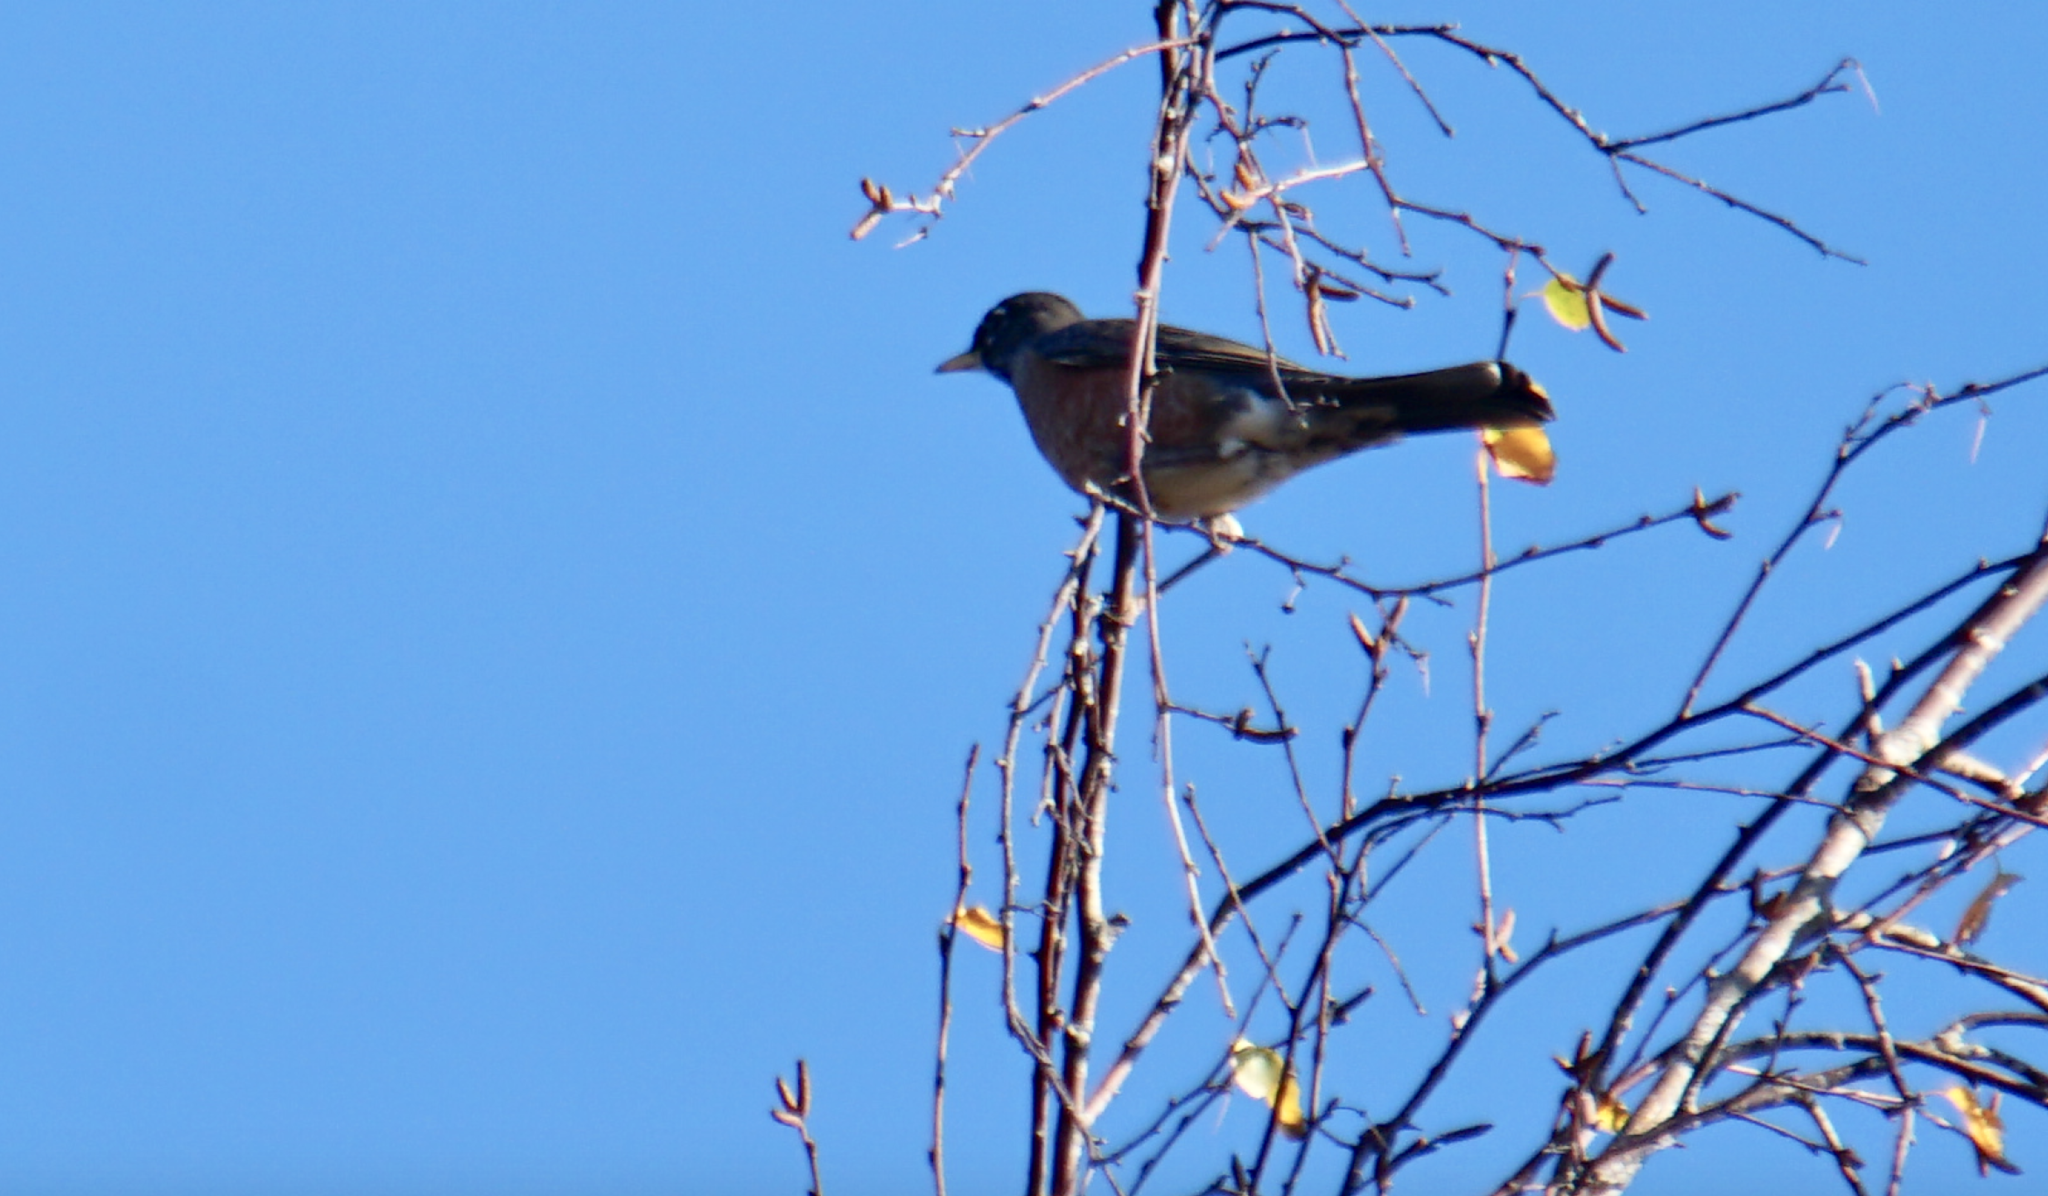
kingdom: Animalia
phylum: Chordata
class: Aves
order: Passeriformes
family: Turdidae
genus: Turdus
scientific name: Turdus migratorius
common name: American robin
